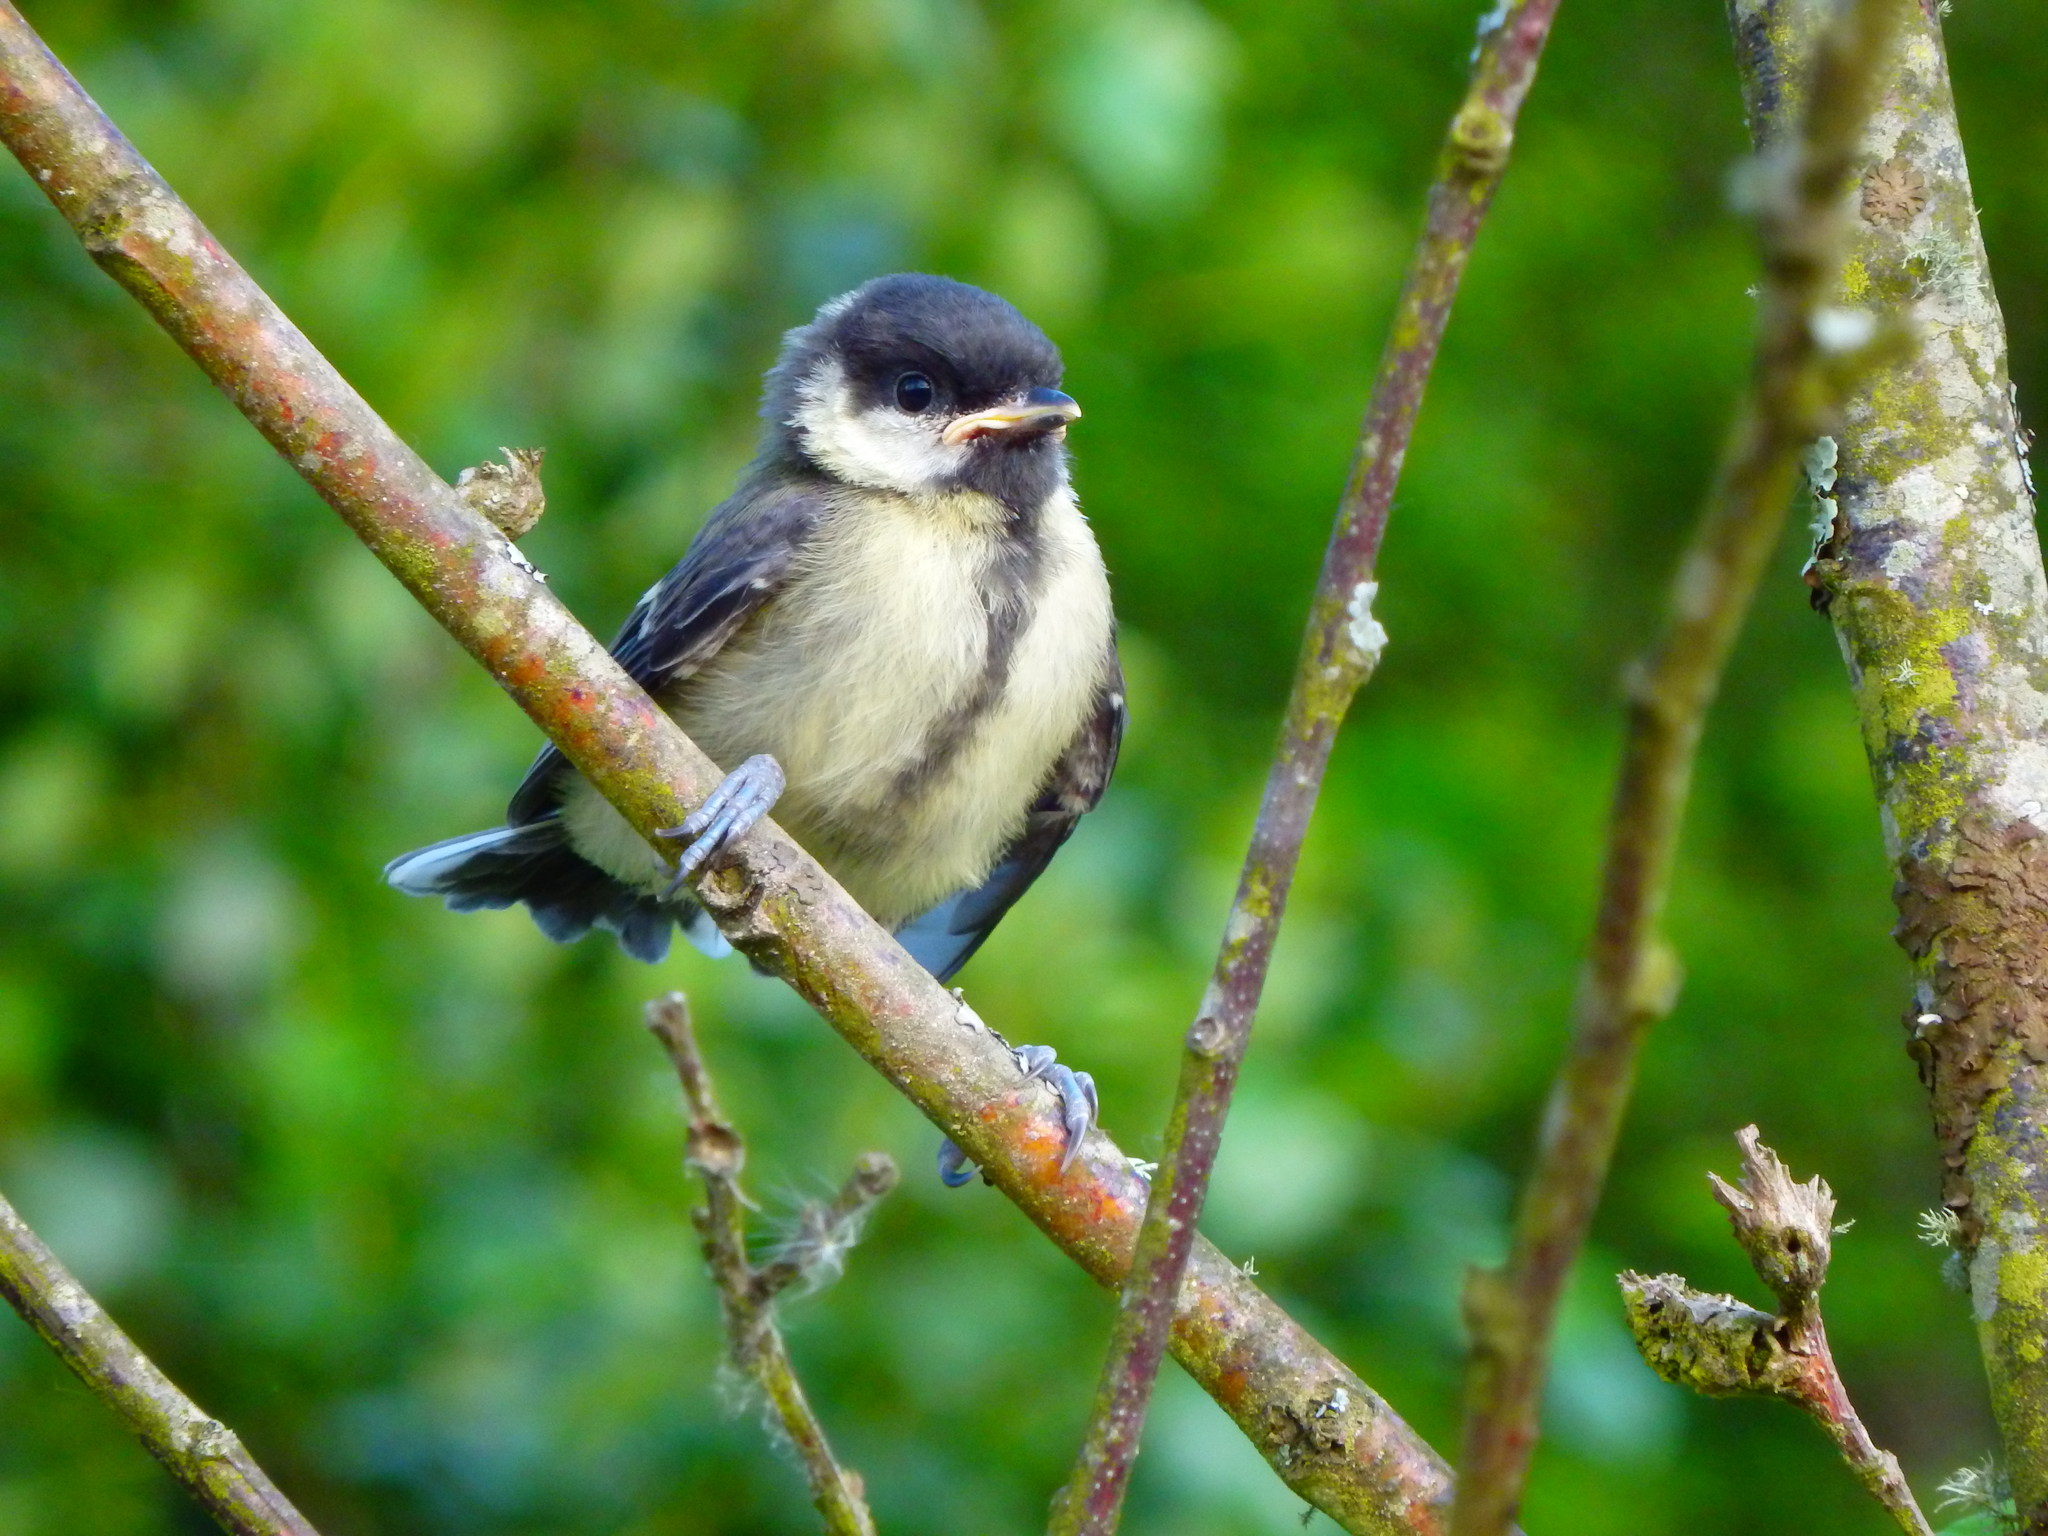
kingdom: Animalia
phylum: Chordata
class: Aves
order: Passeriformes
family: Paridae
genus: Parus
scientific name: Parus major
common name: Great tit
